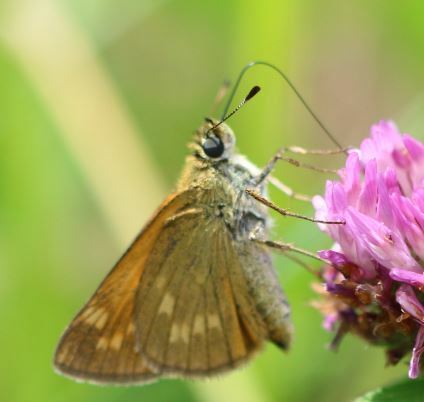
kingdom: Animalia
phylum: Arthropoda
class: Insecta
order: Lepidoptera
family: Hesperiidae
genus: Ochlodes
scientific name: Ochlodes venata
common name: Large skipper
